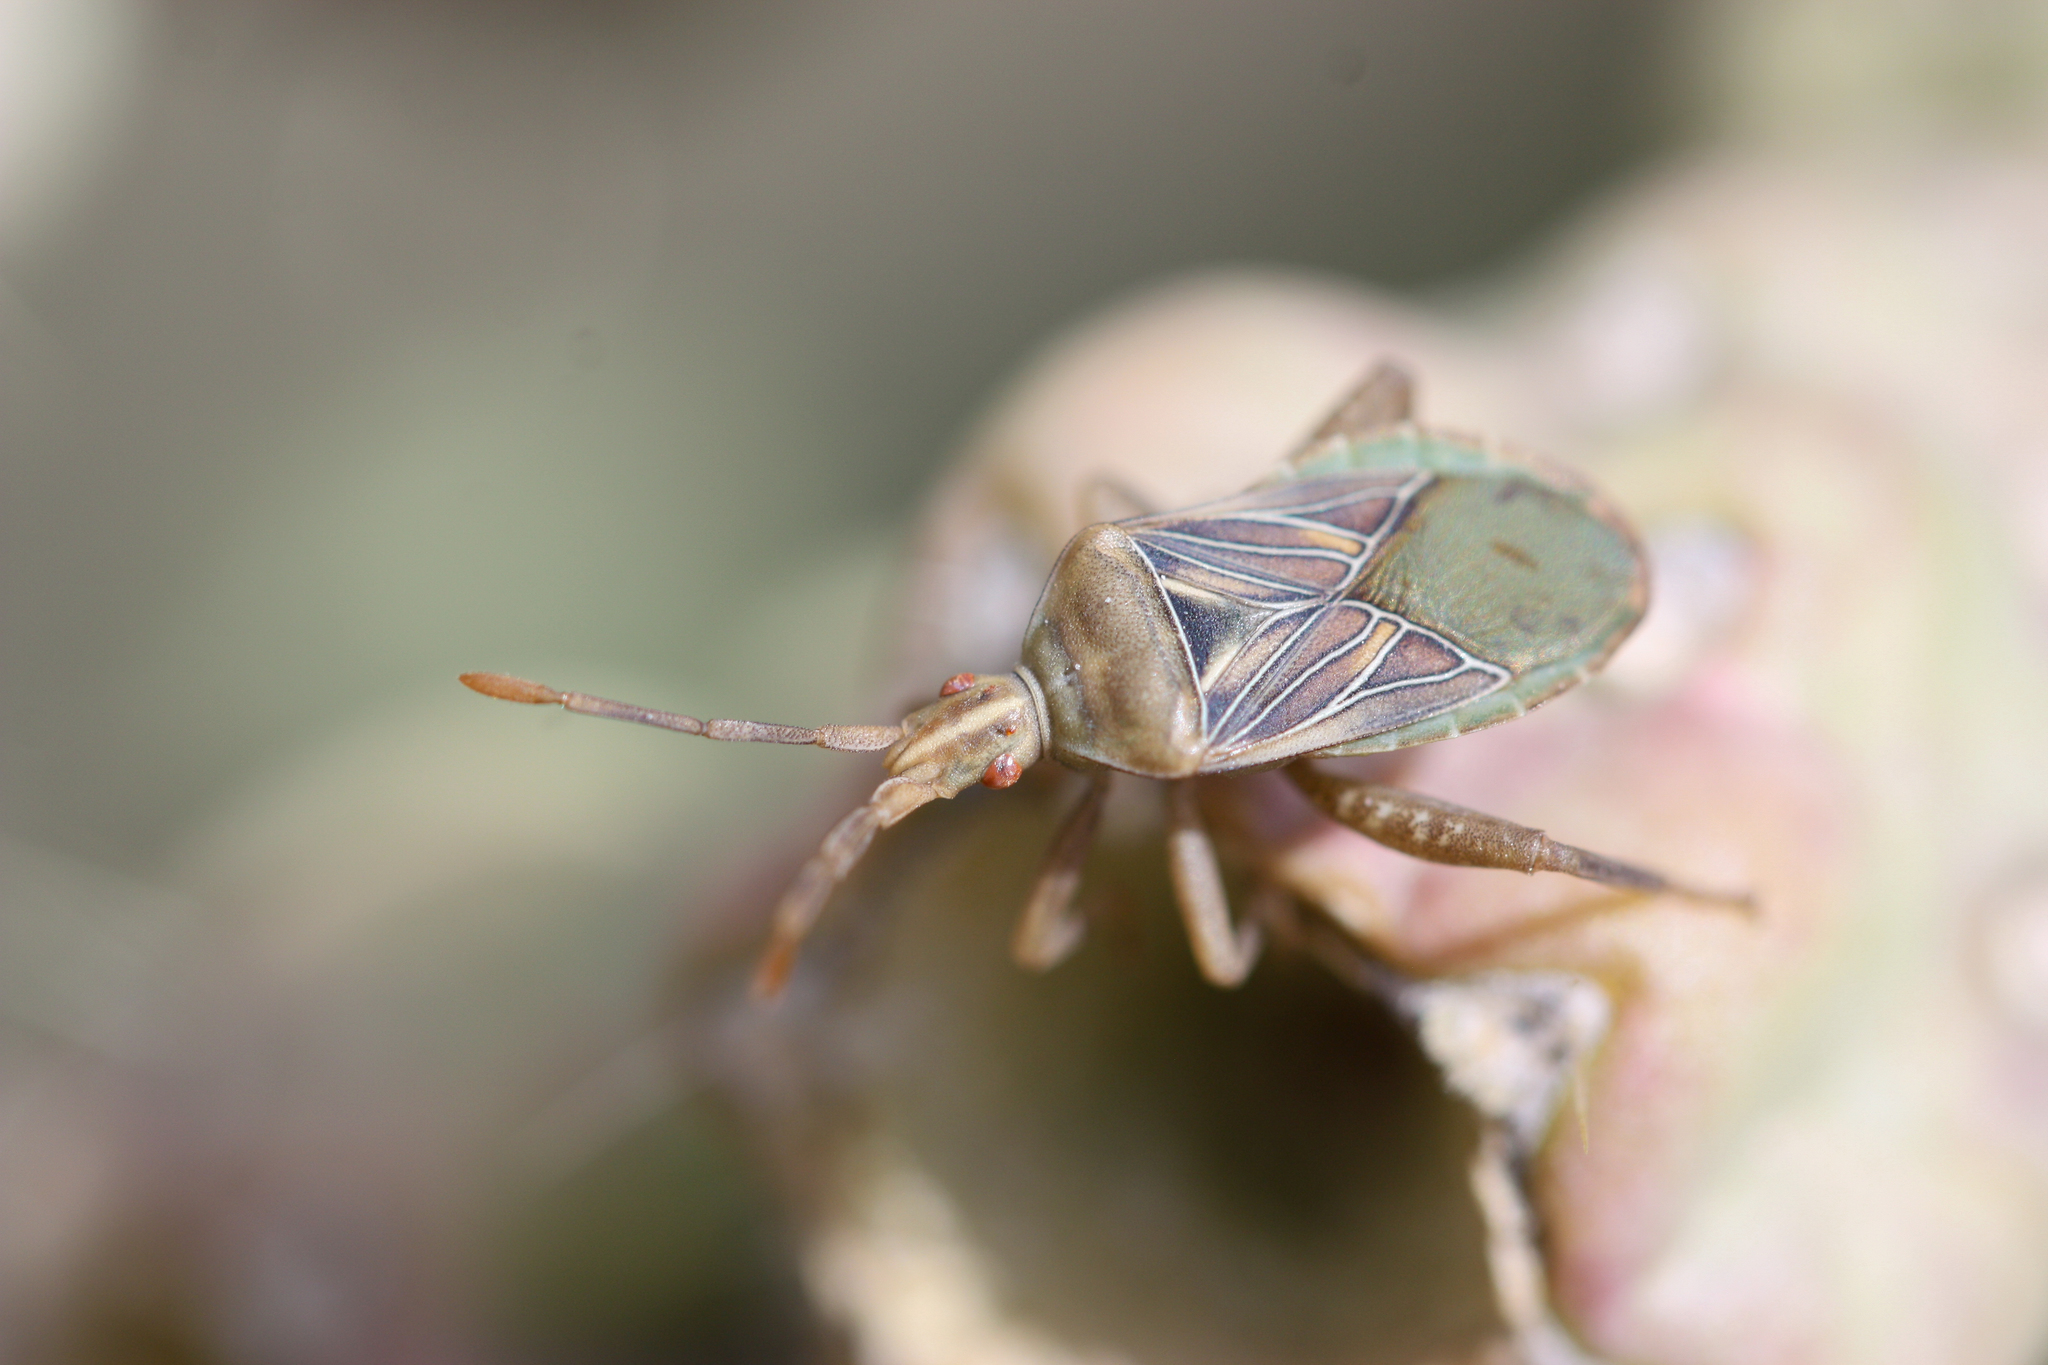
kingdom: Animalia
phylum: Arthropoda
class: Insecta
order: Hemiptera
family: Coreidae
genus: Chelinidea
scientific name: Chelinidea hunteri
